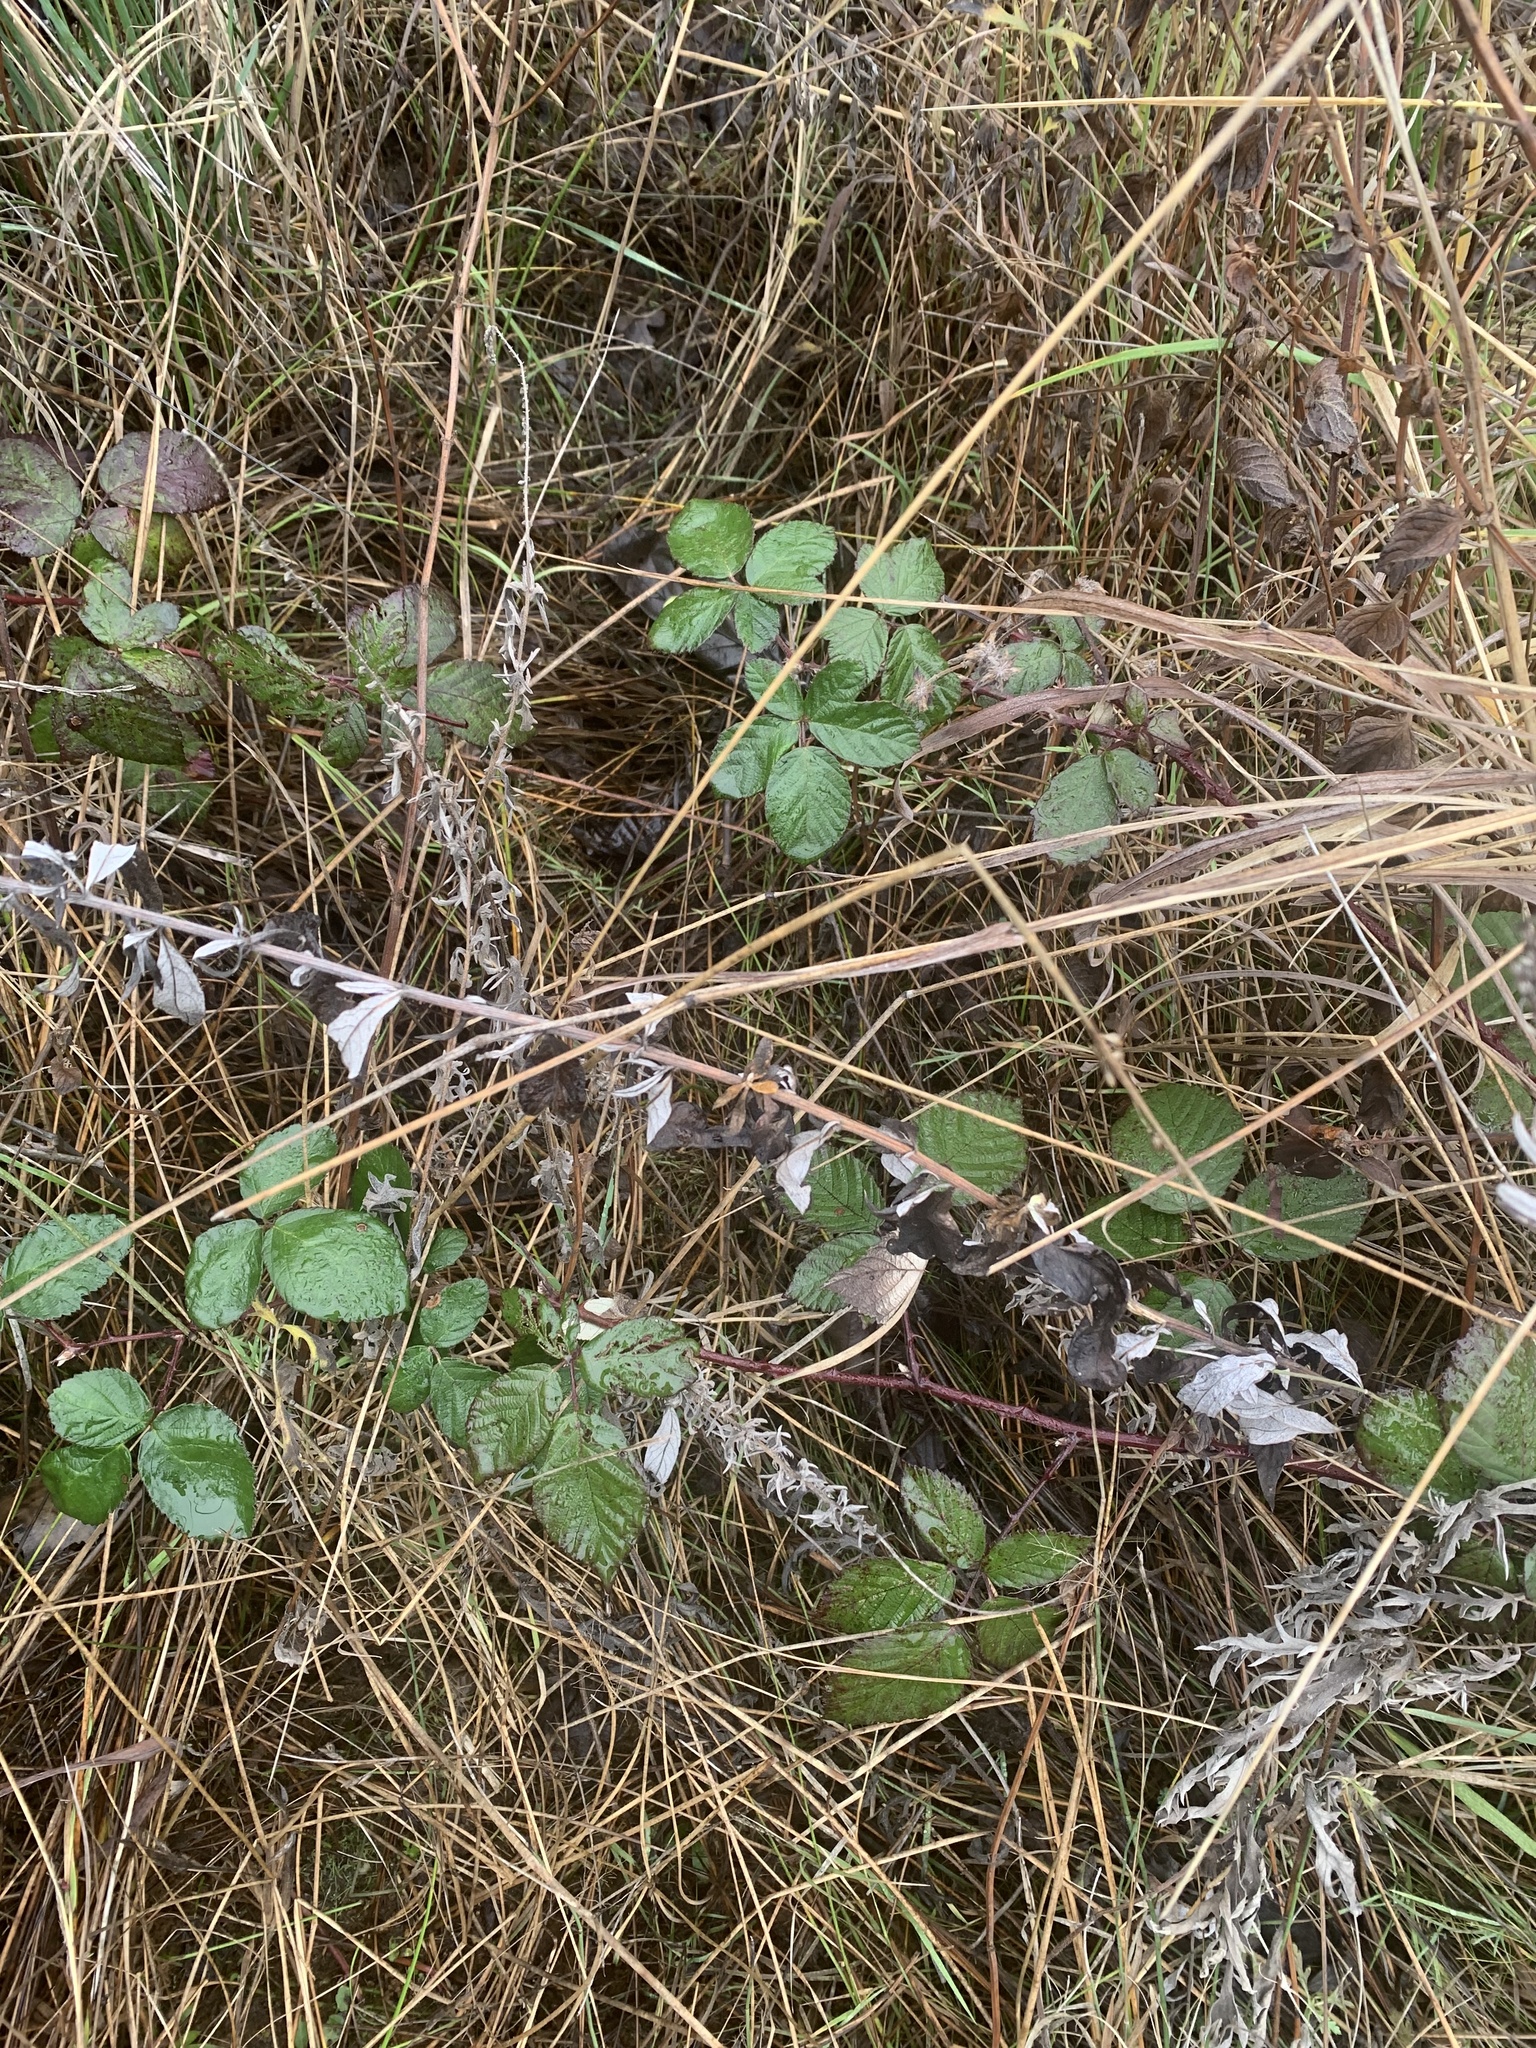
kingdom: Plantae
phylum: Tracheophyta
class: Magnoliopsida
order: Rosales
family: Rosaceae
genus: Rubus
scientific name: Rubus armeniacus
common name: Himalayan blackberry
